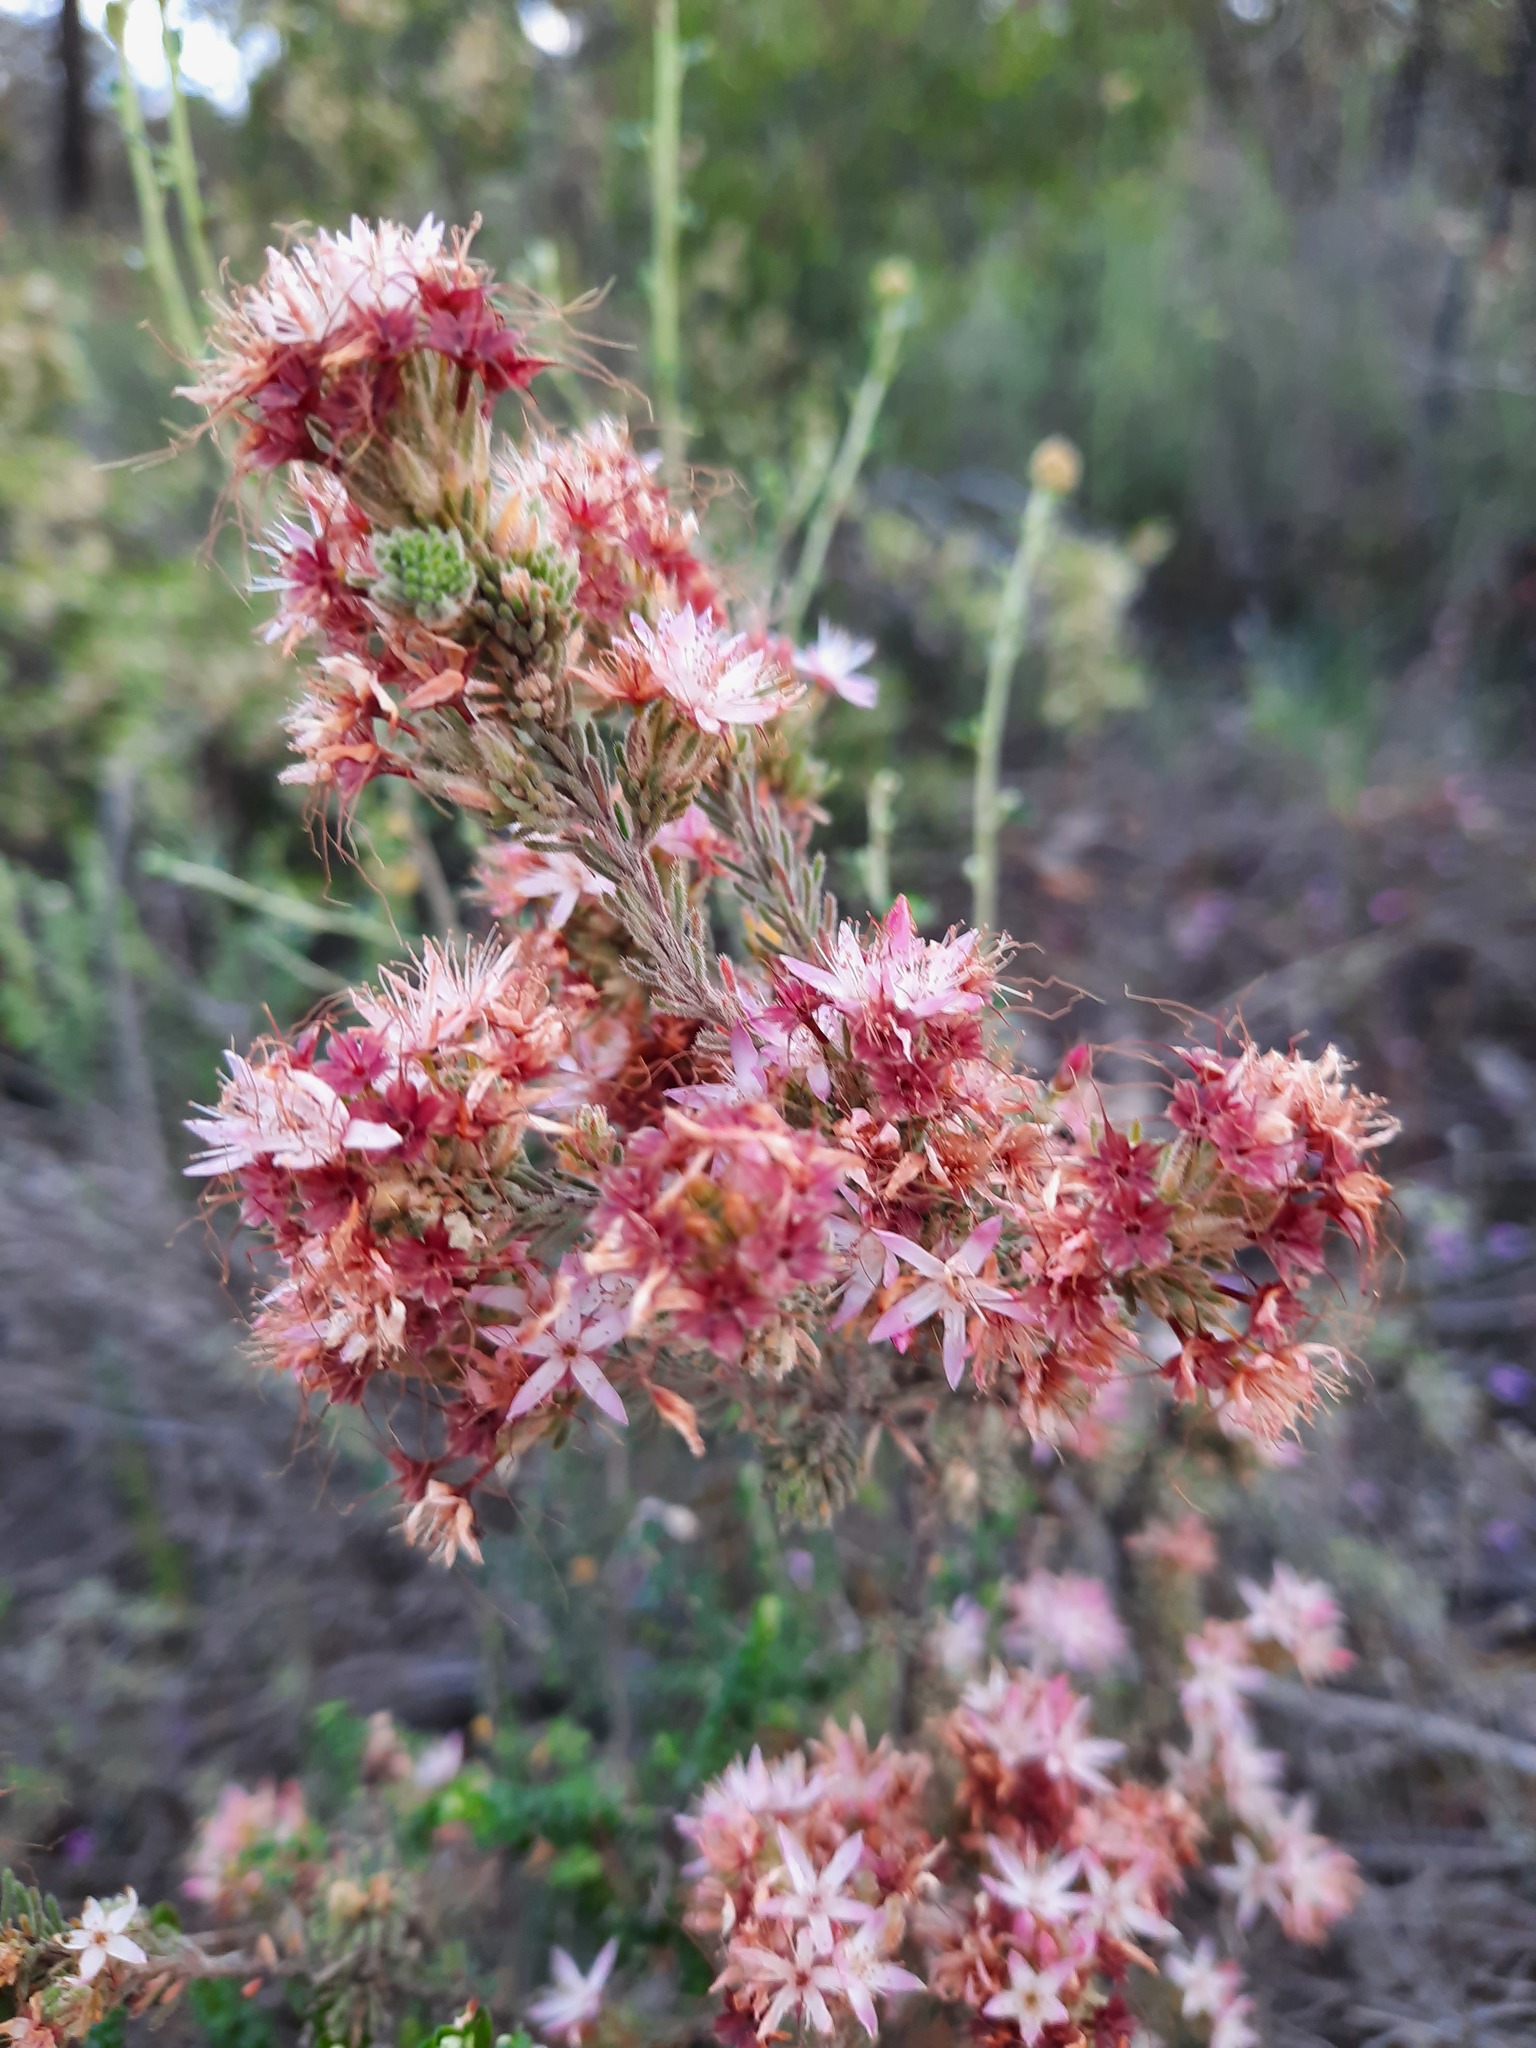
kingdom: Plantae
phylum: Tracheophyta
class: Magnoliopsida
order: Myrtales
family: Myrtaceae
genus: Calytrix
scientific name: Calytrix tetragona
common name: Common fringe myrtle
